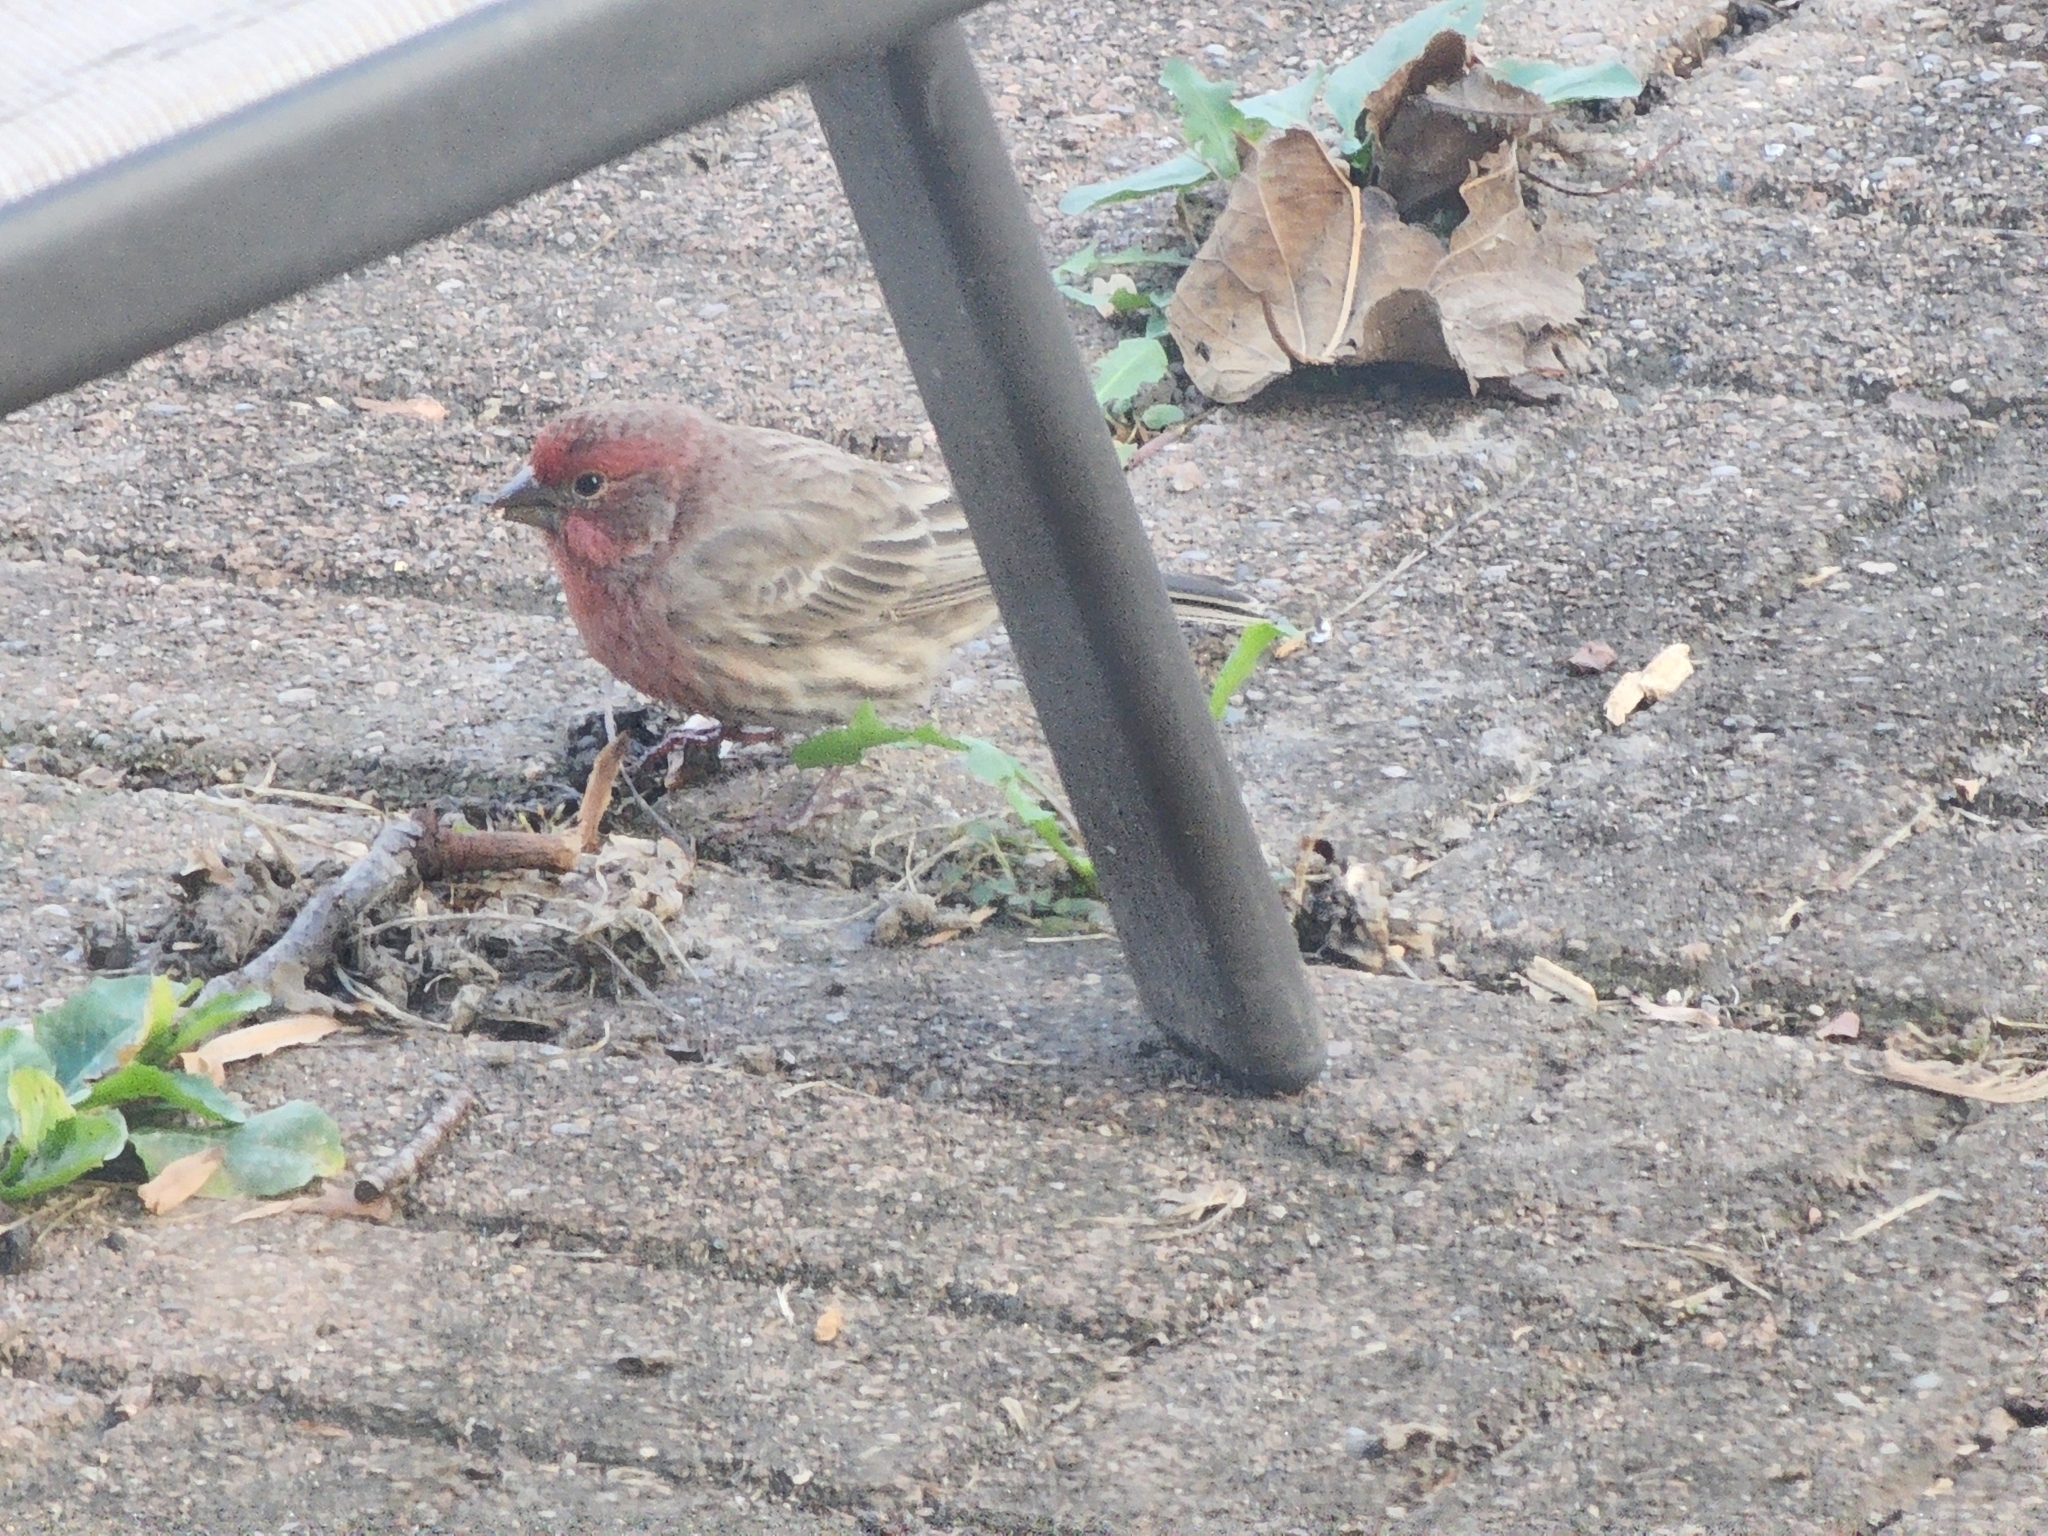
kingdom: Animalia
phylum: Chordata
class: Aves
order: Passeriformes
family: Fringillidae
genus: Haemorhous
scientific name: Haemorhous mexicanus
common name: House finch
